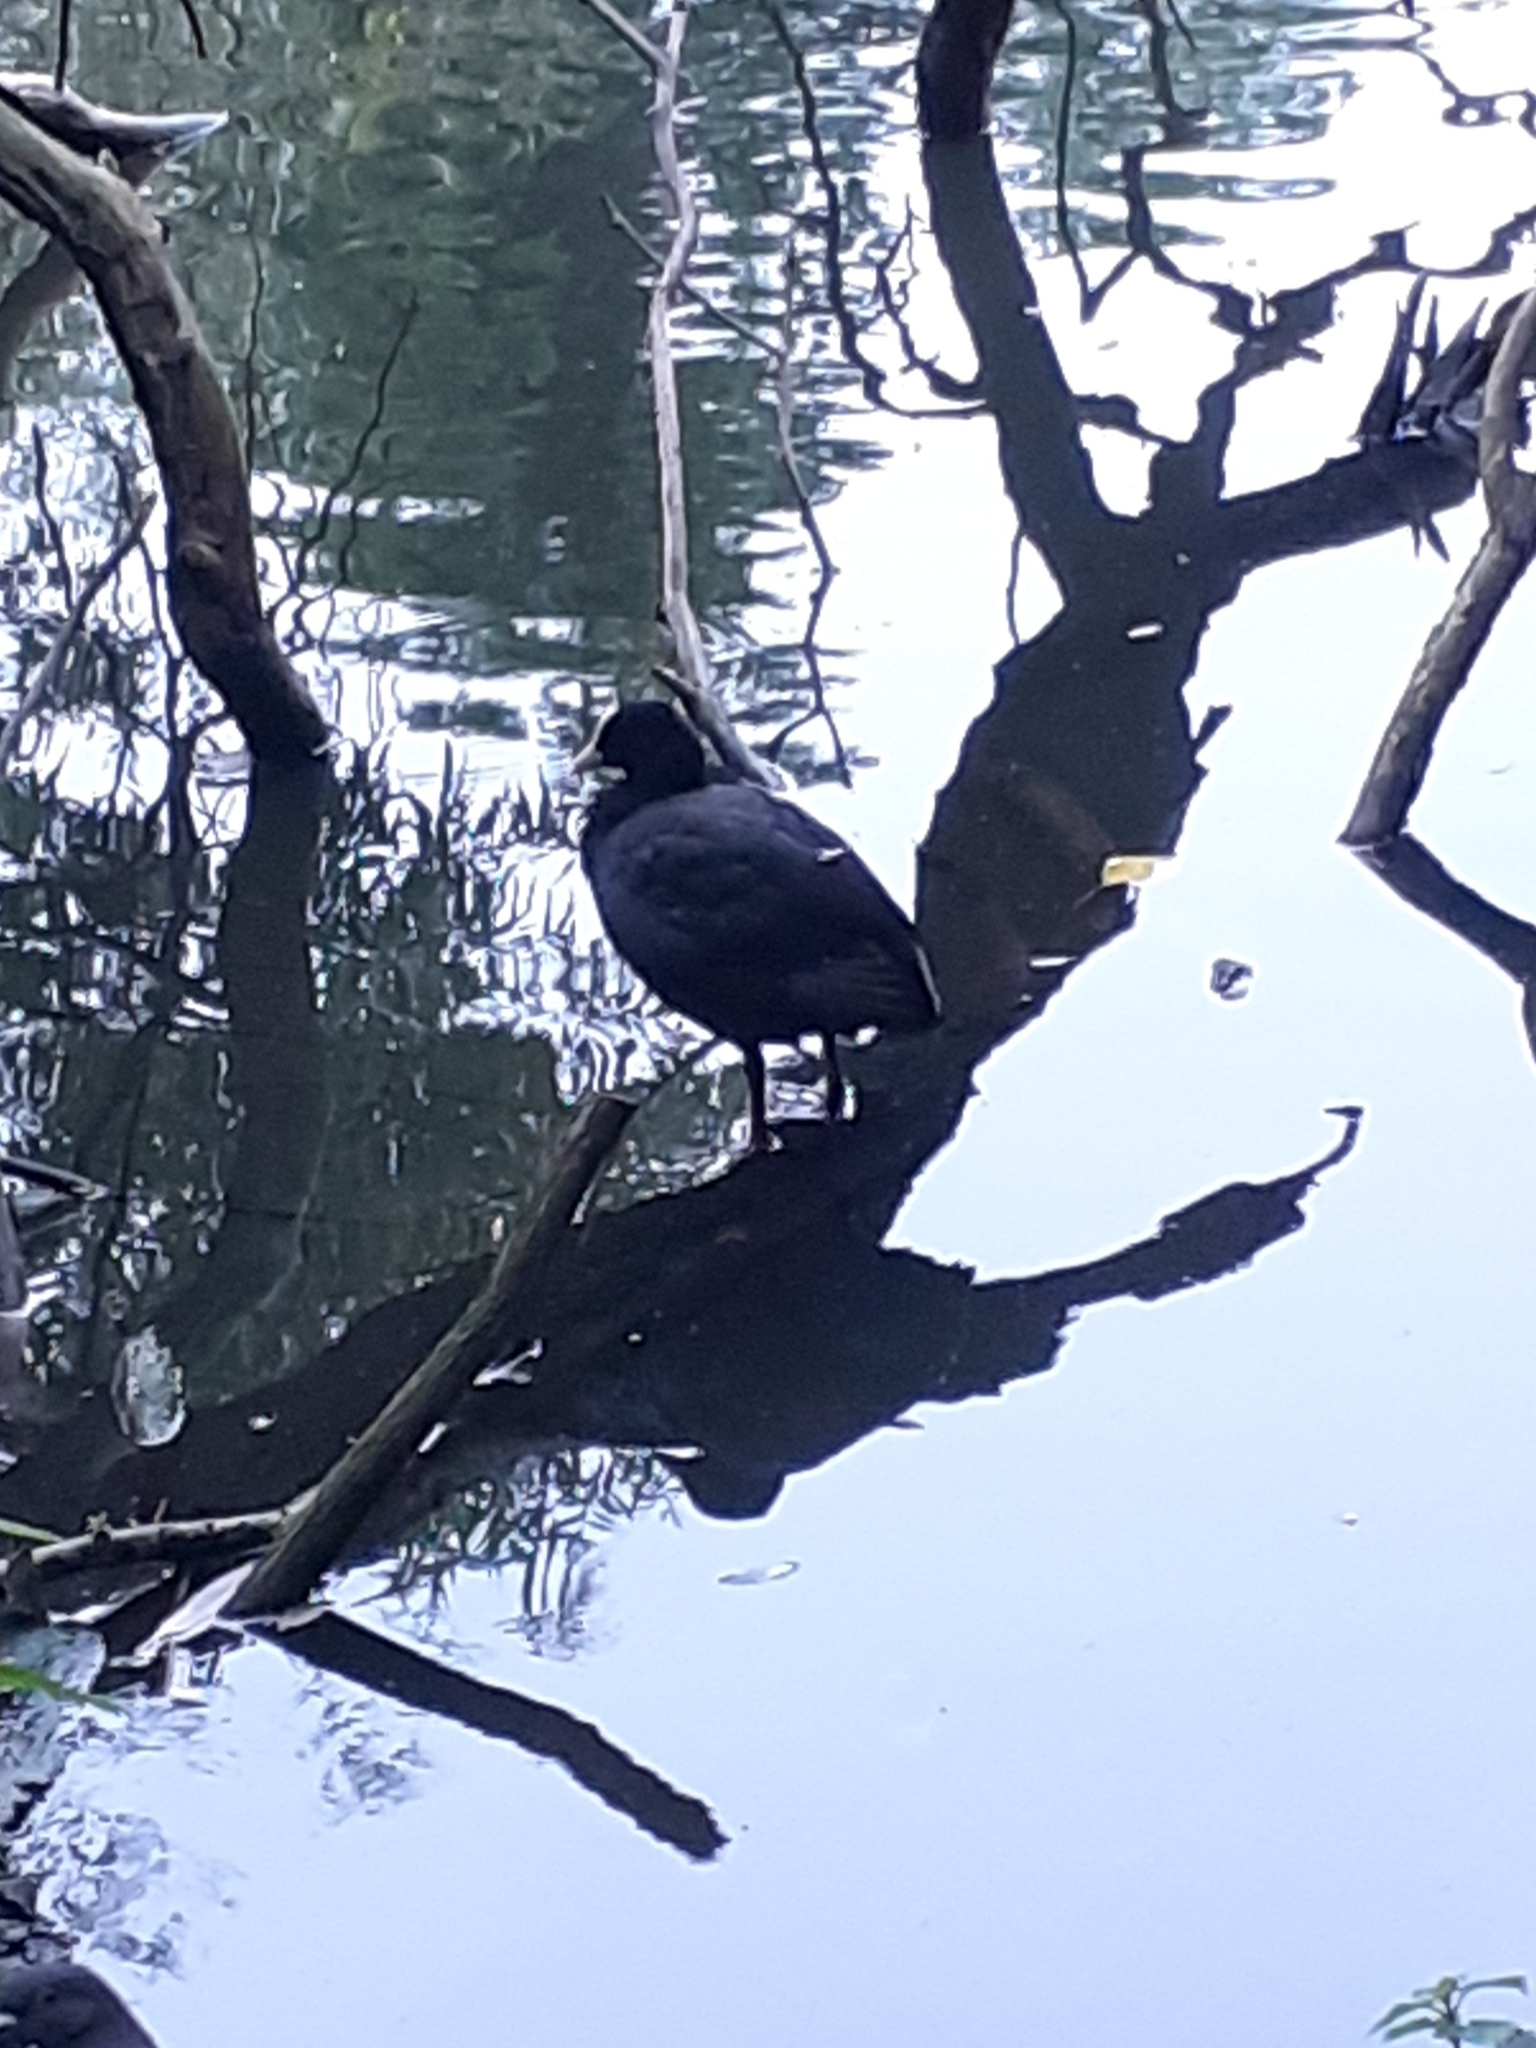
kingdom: Animalia
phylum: Chordata
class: Aves
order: Gruiformes
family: Rallidae
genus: Fulica
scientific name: Fulica atra
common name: Eurasian coot
